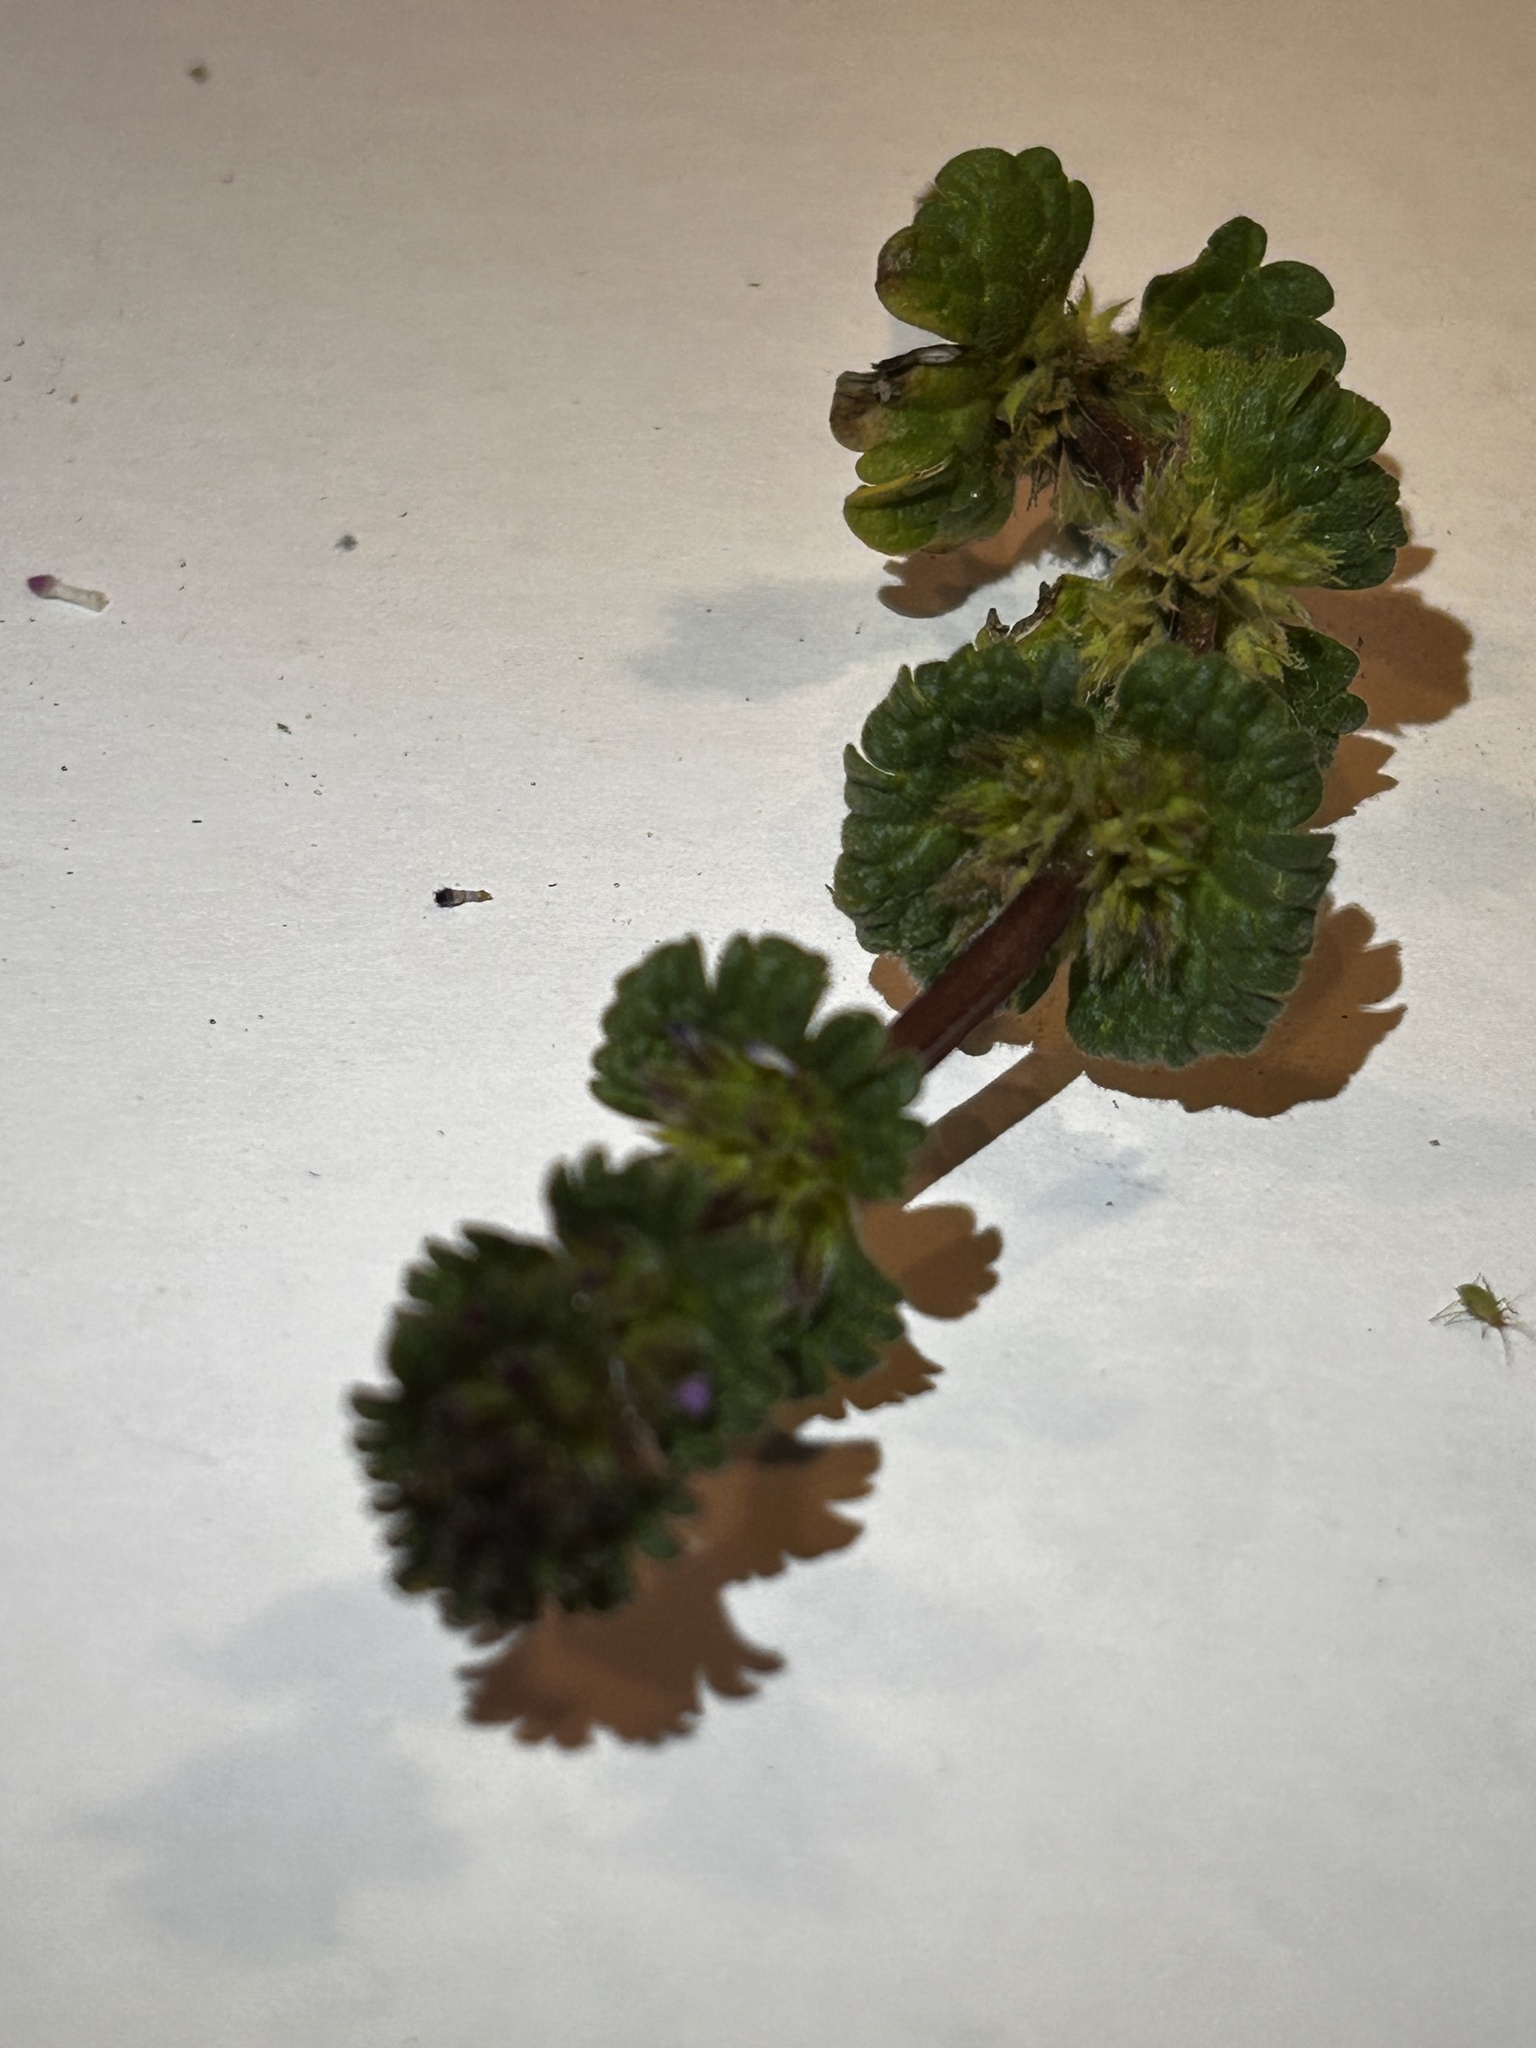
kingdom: Plantae
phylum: Tracheophyta
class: Magnoliopsida
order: Lamiales
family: Lamiaceae
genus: Lamium
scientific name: Lamium amplexicaule
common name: Henbit dead-nettle
